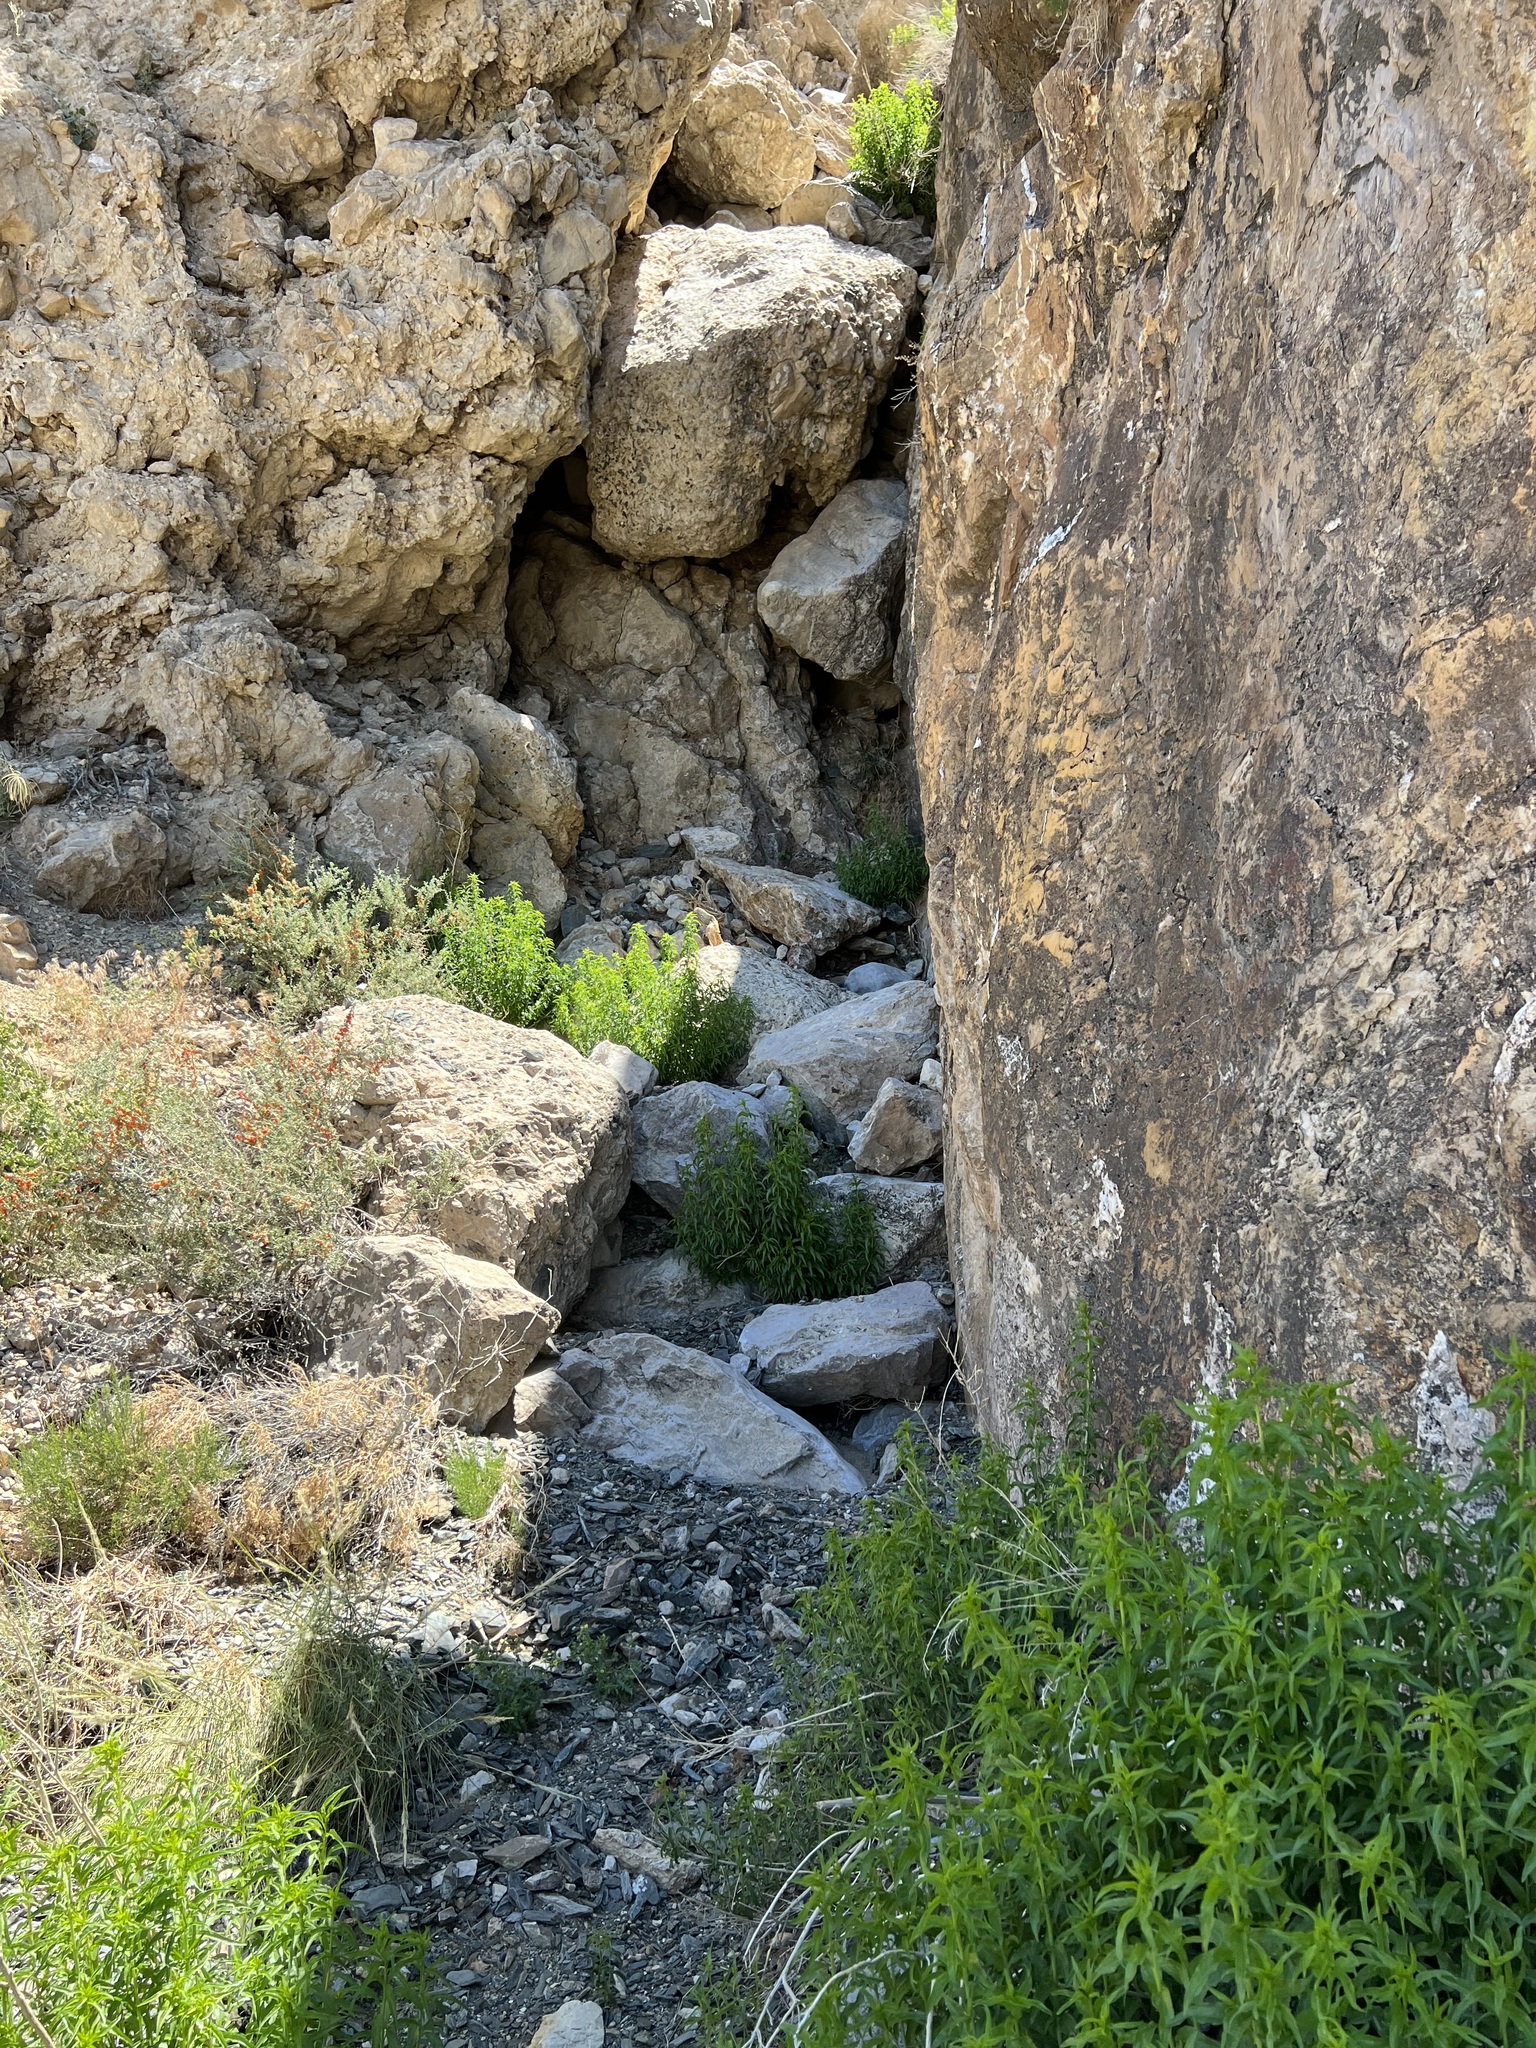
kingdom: Plantae
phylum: Tracheophyta
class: Magnoliopsida
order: Asterales
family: Asteraceae
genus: Brickellia
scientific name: Brickellia longifolia
